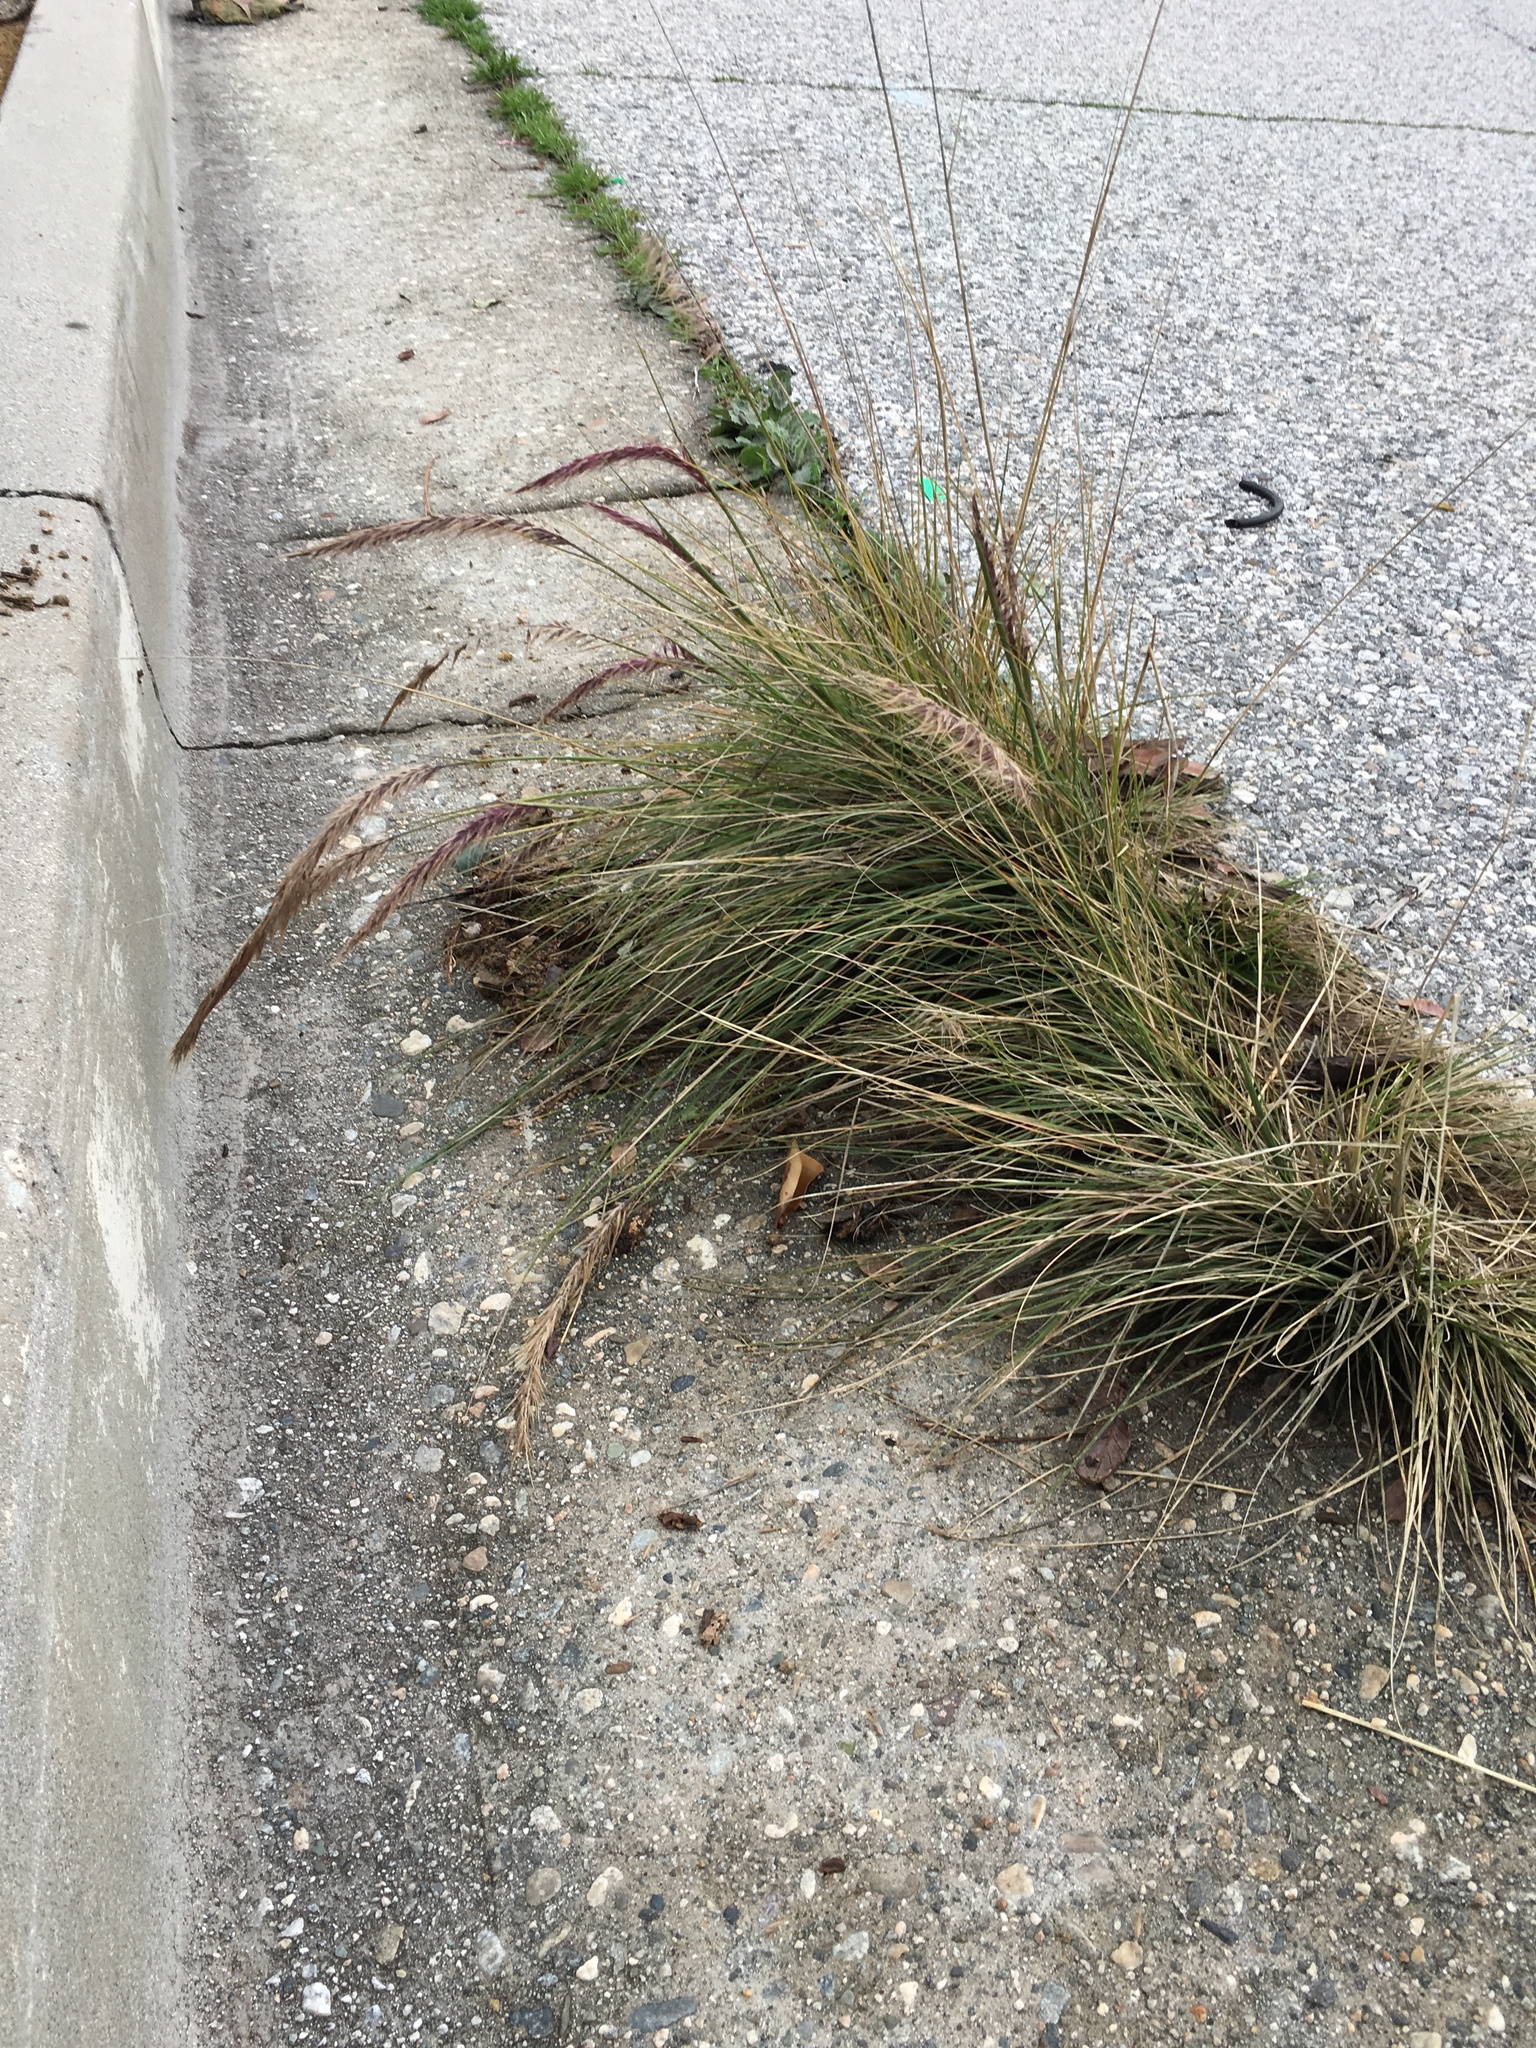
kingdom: Plantae
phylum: Tracheophyta
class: Liliopsida
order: Poales
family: Poaceae
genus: Cenchrus
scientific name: Cenchrus setaceus
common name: Crimson fountaingrass
